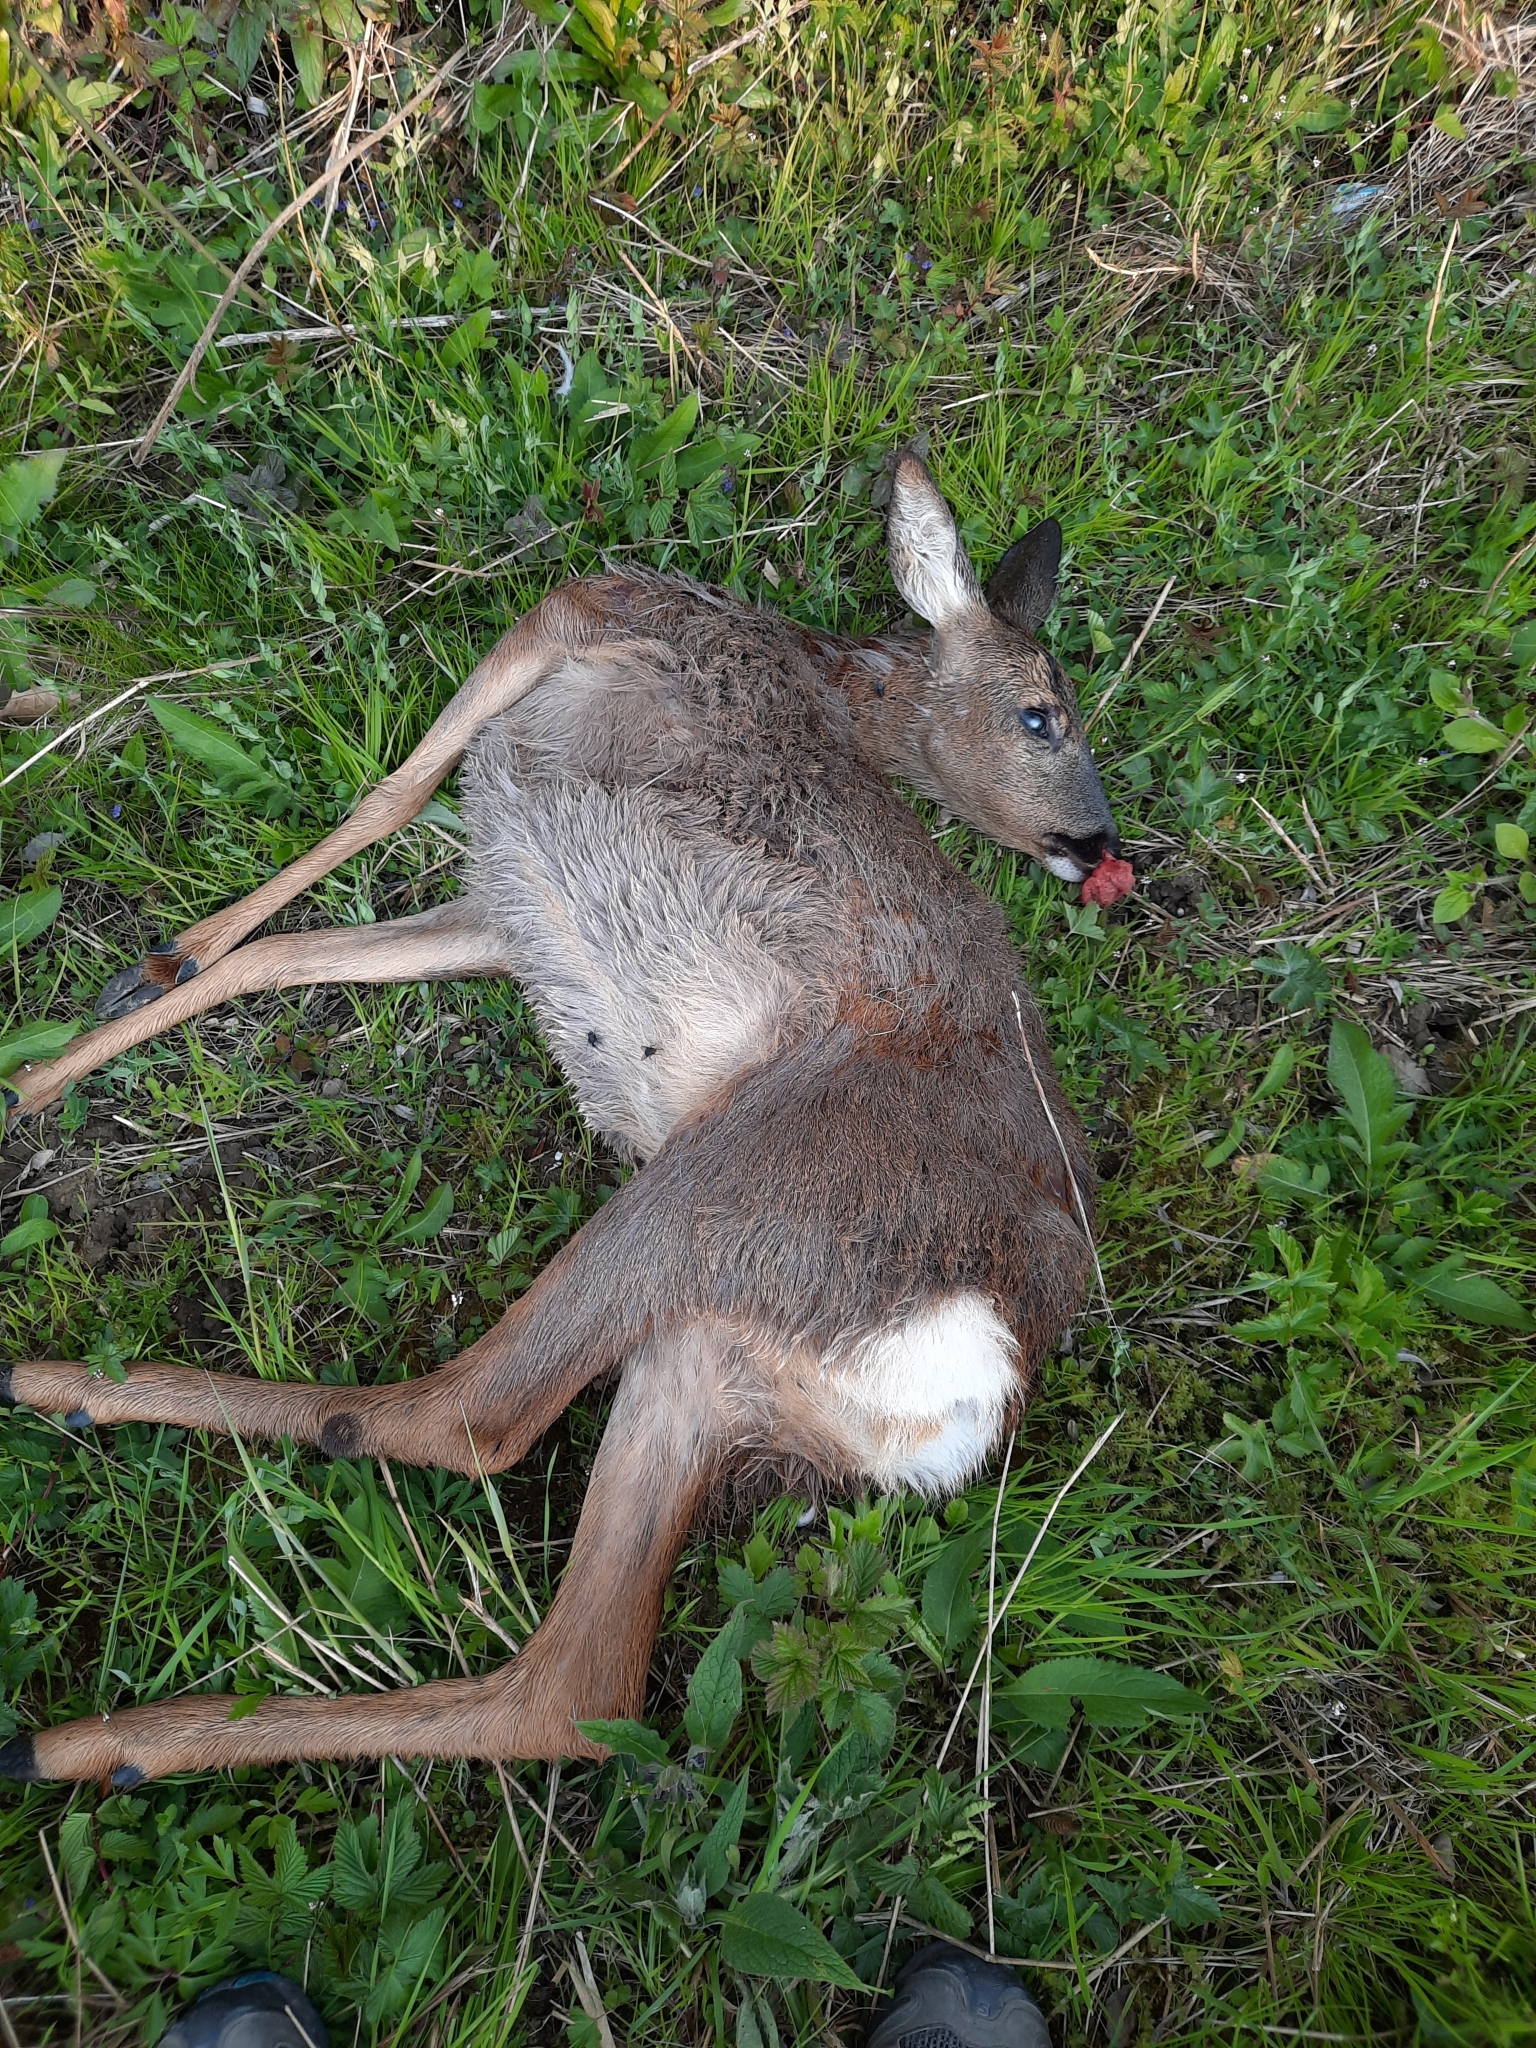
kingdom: Animalia
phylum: Chordata
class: Mammalia
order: Artiodactyla
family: Cervidae
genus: Capreolus
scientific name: Capreolus capreolus
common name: Western roe deer
